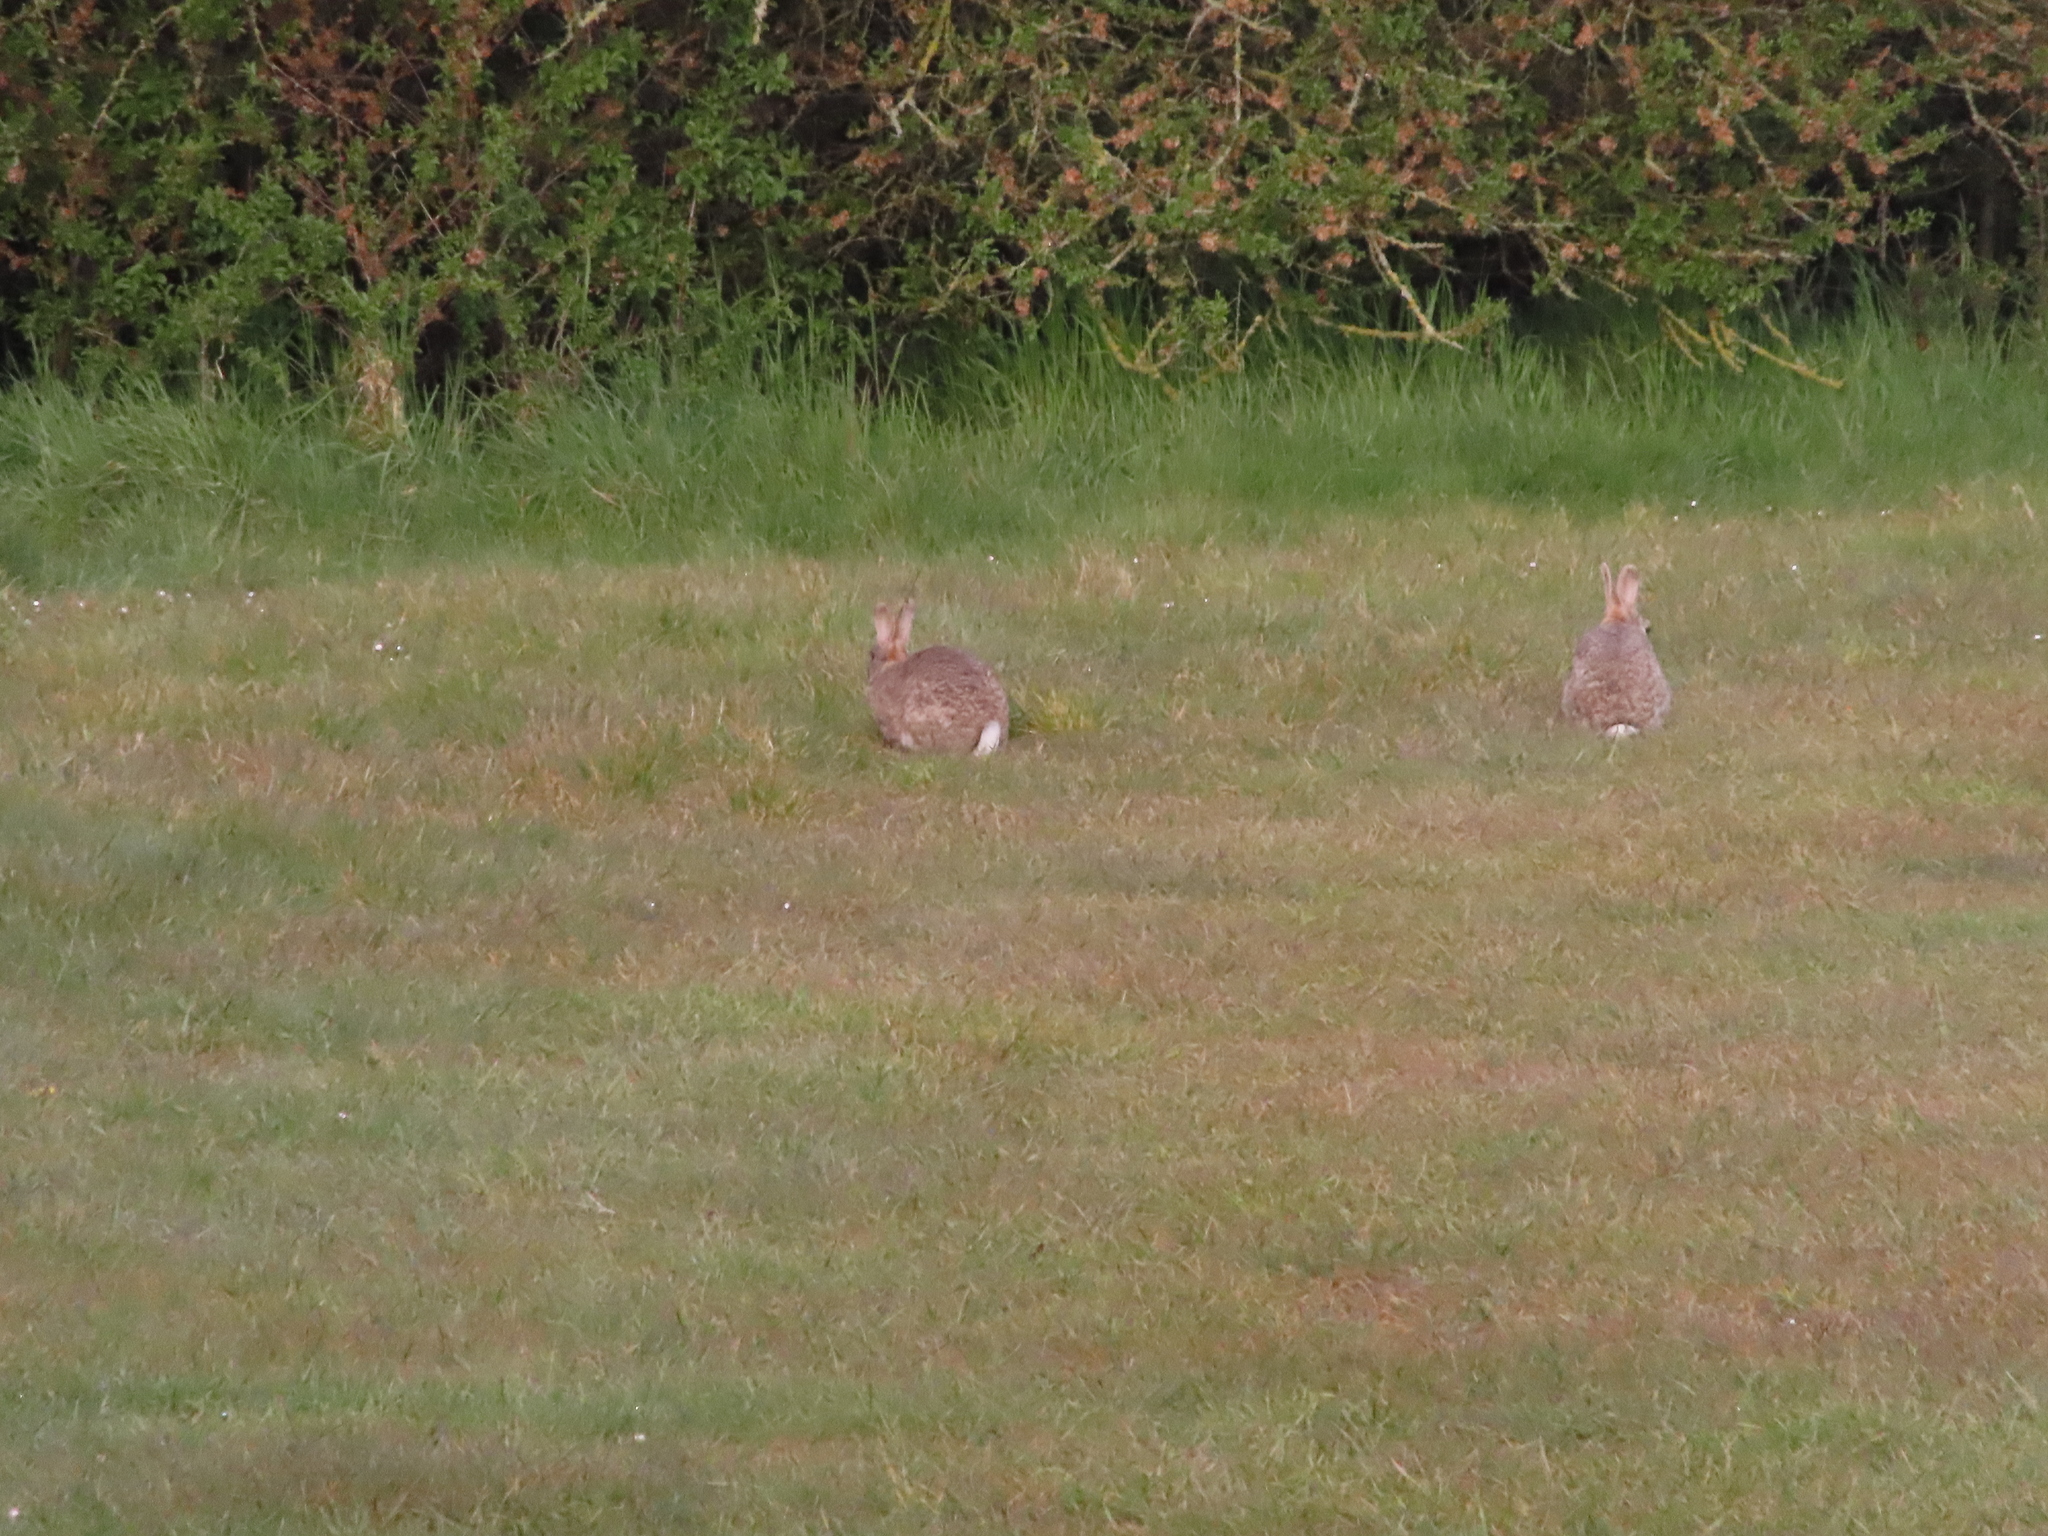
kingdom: Animalia
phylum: Chordata
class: Mammalia
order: Lagomorpha
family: Leporidae
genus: Oryctolagus
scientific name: Oryctolagus cuniculus
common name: European rabbit
